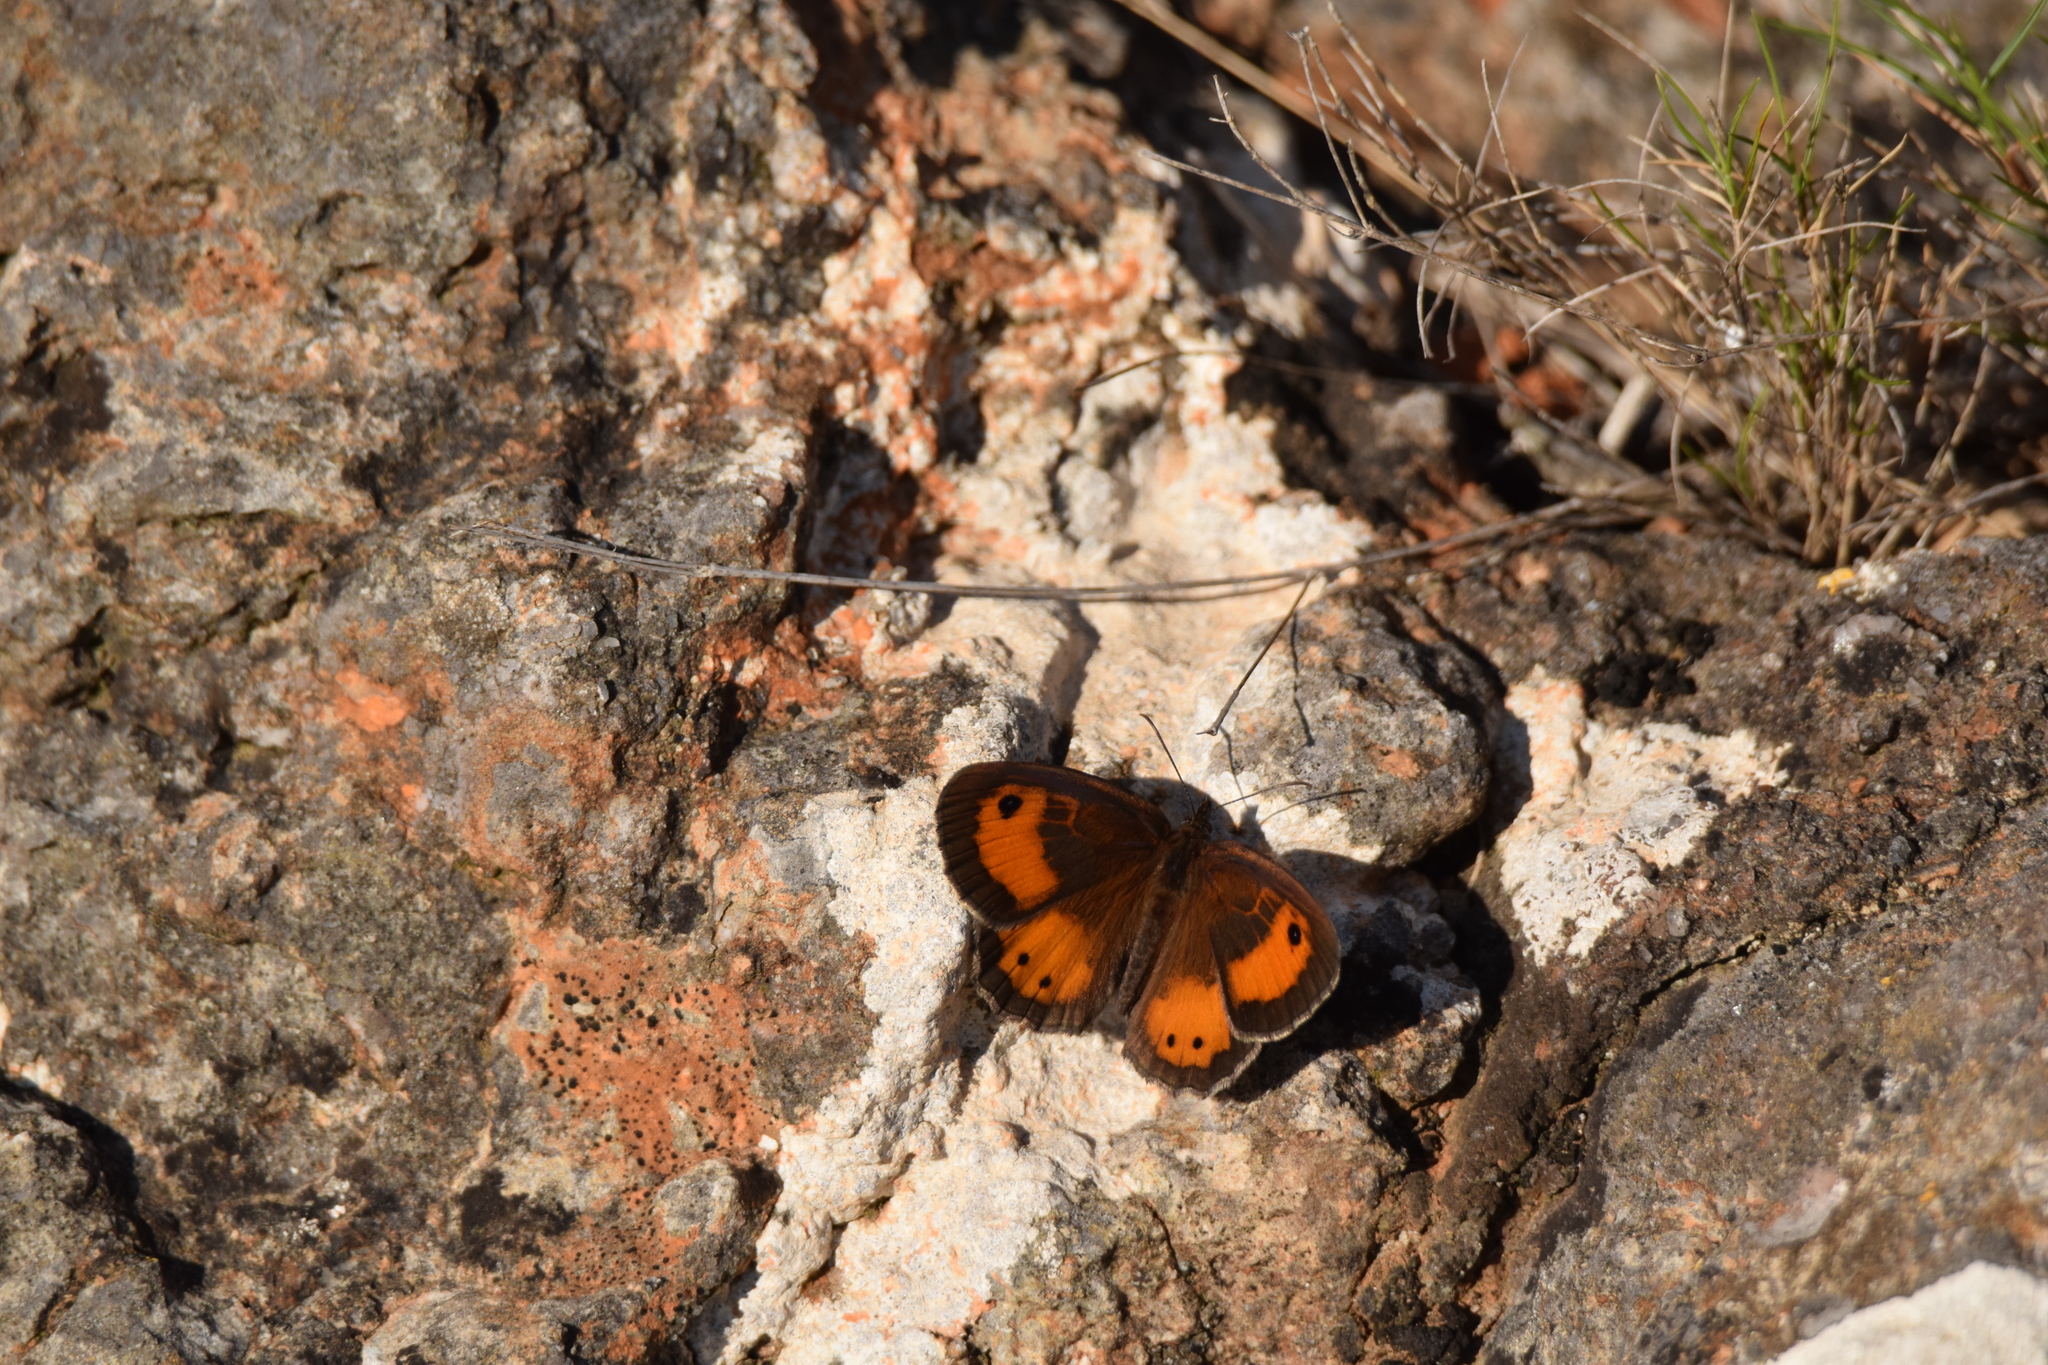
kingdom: Animalia
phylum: Arthropoda
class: Insecta
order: Lepidoptera
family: Nymphalidae
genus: Pyronia
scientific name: Pyronia bathseba
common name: Spanish gatekeeper
